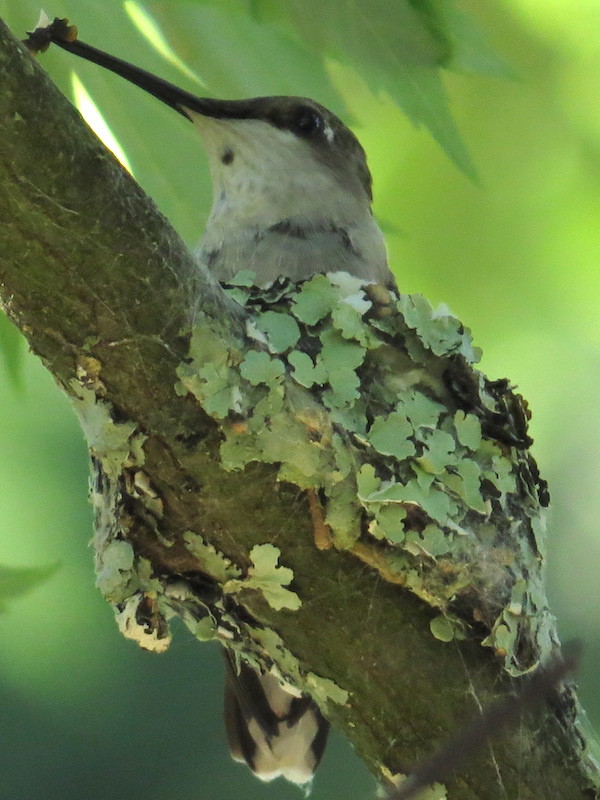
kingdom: Animalia
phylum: Chordata
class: Aves
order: Apodiformes
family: Trochilidae
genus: Archilochus
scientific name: Archilochus colubris
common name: Ruby-throated hummingbird
